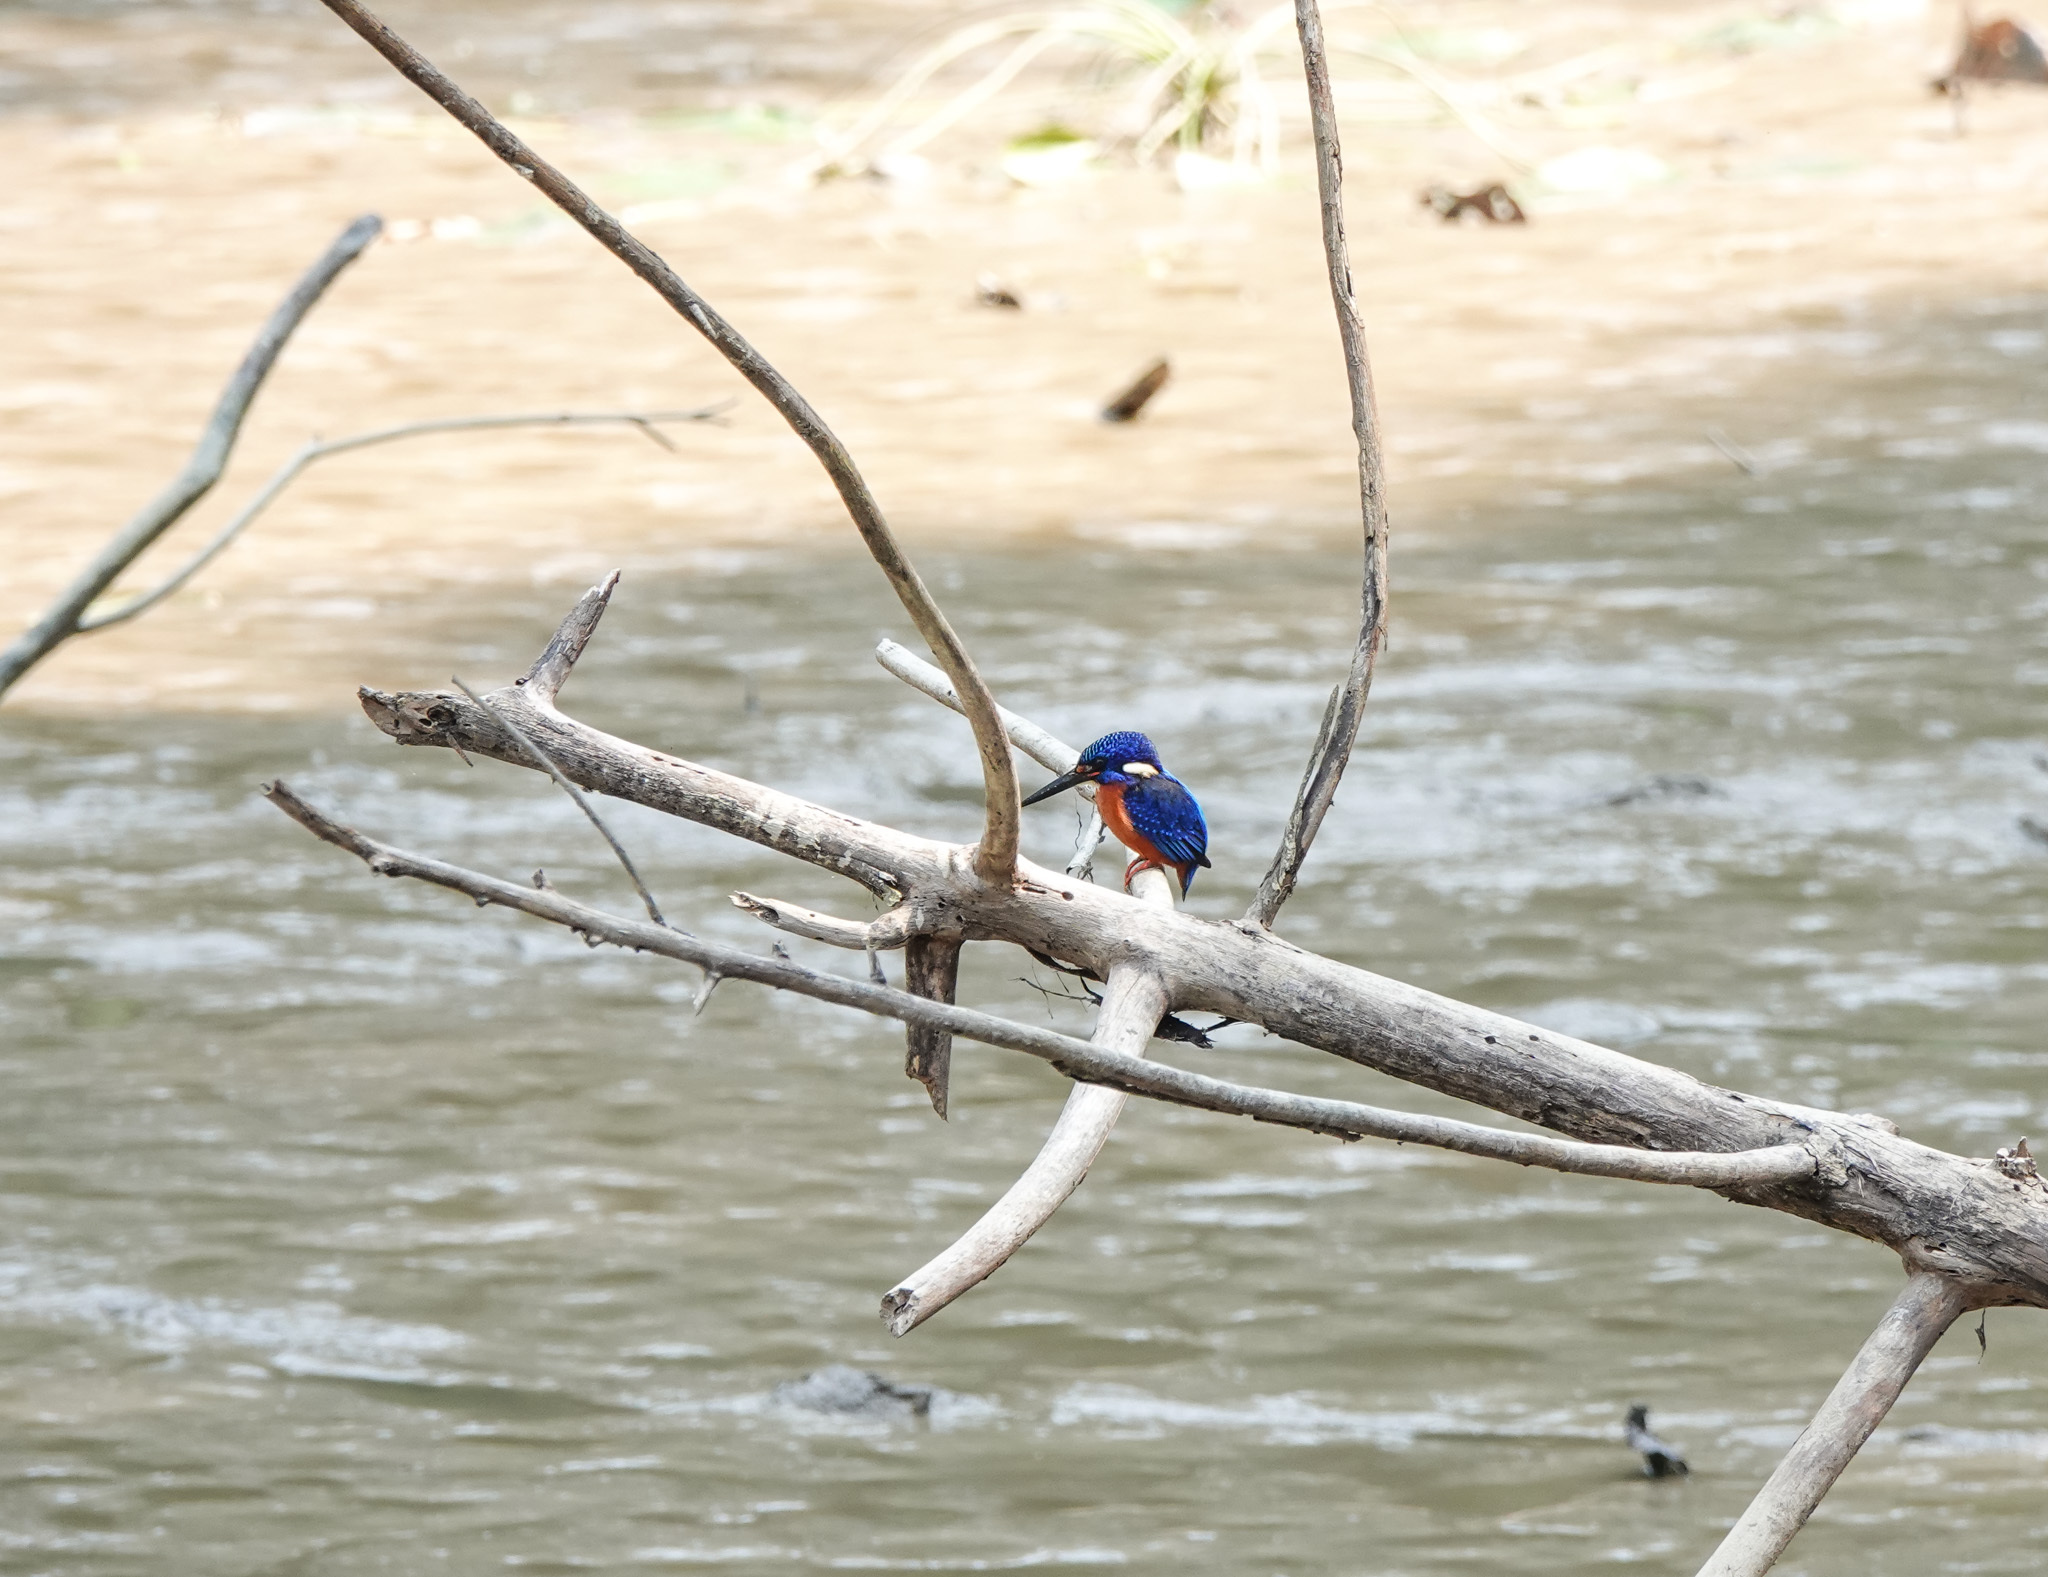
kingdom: Animalia
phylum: Chordata
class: Aves
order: Coraciiformes
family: Alcedinidae
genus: Alcedo
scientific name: Alcedo meninting
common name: Blue-eared kingfisher
